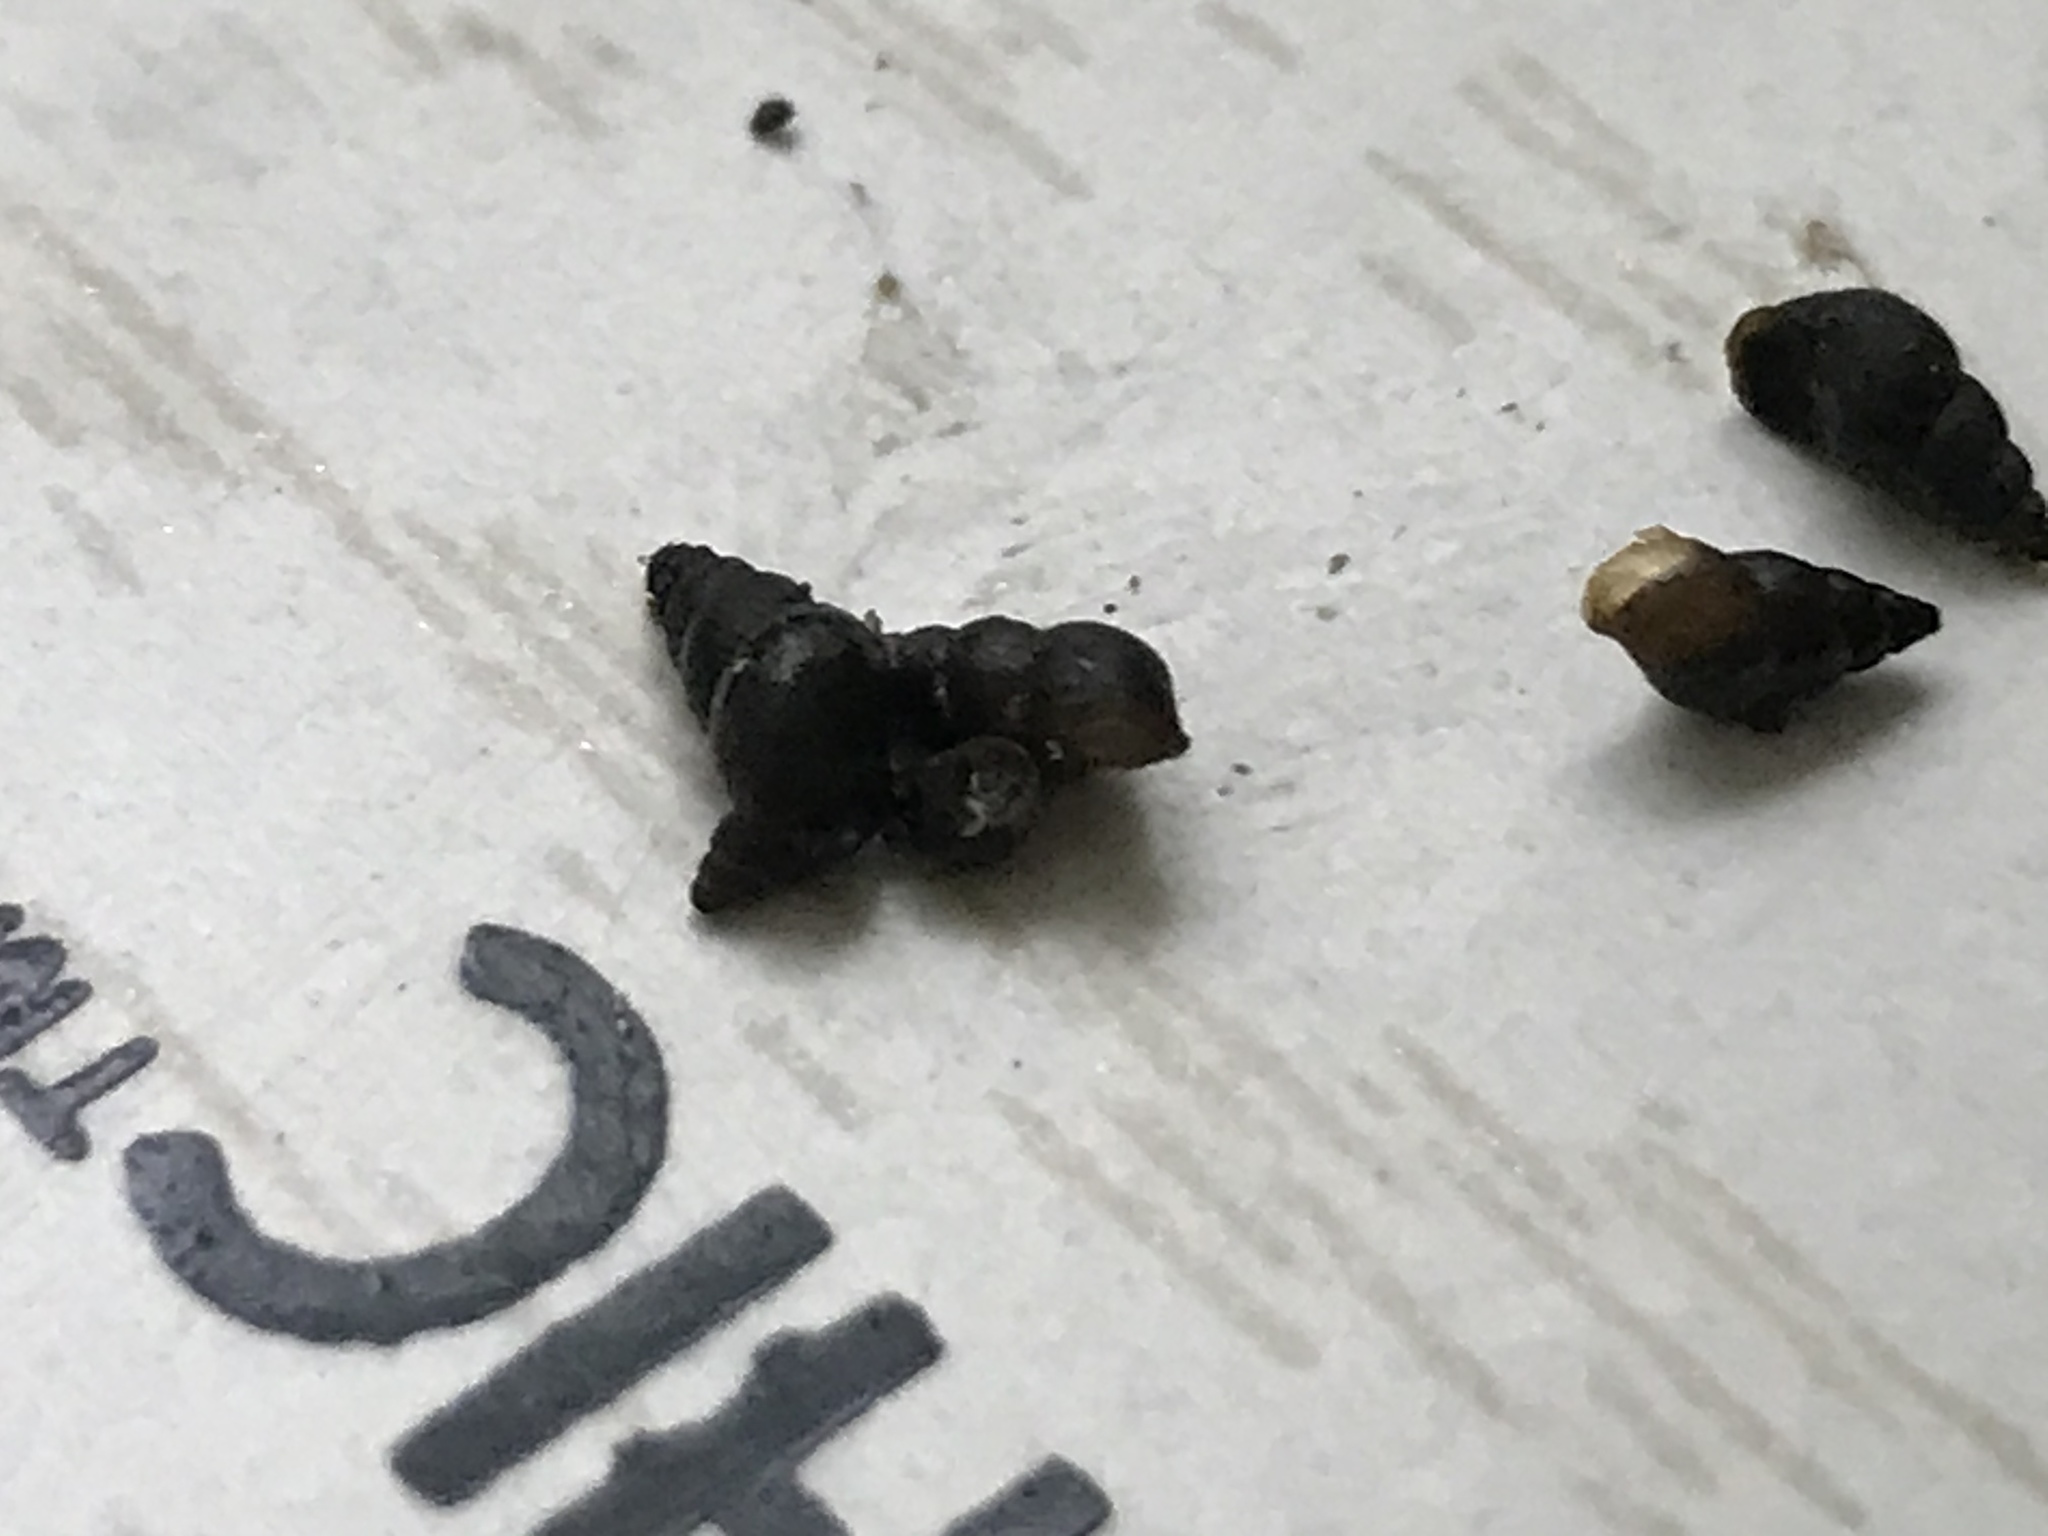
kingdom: Animalia
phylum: Mollusca
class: Gastropoda
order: Littorinimorpha
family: Tateidae
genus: Potamopyrgus
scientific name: Potamopyrgus antipodarum
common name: Jenkins' spire snail
